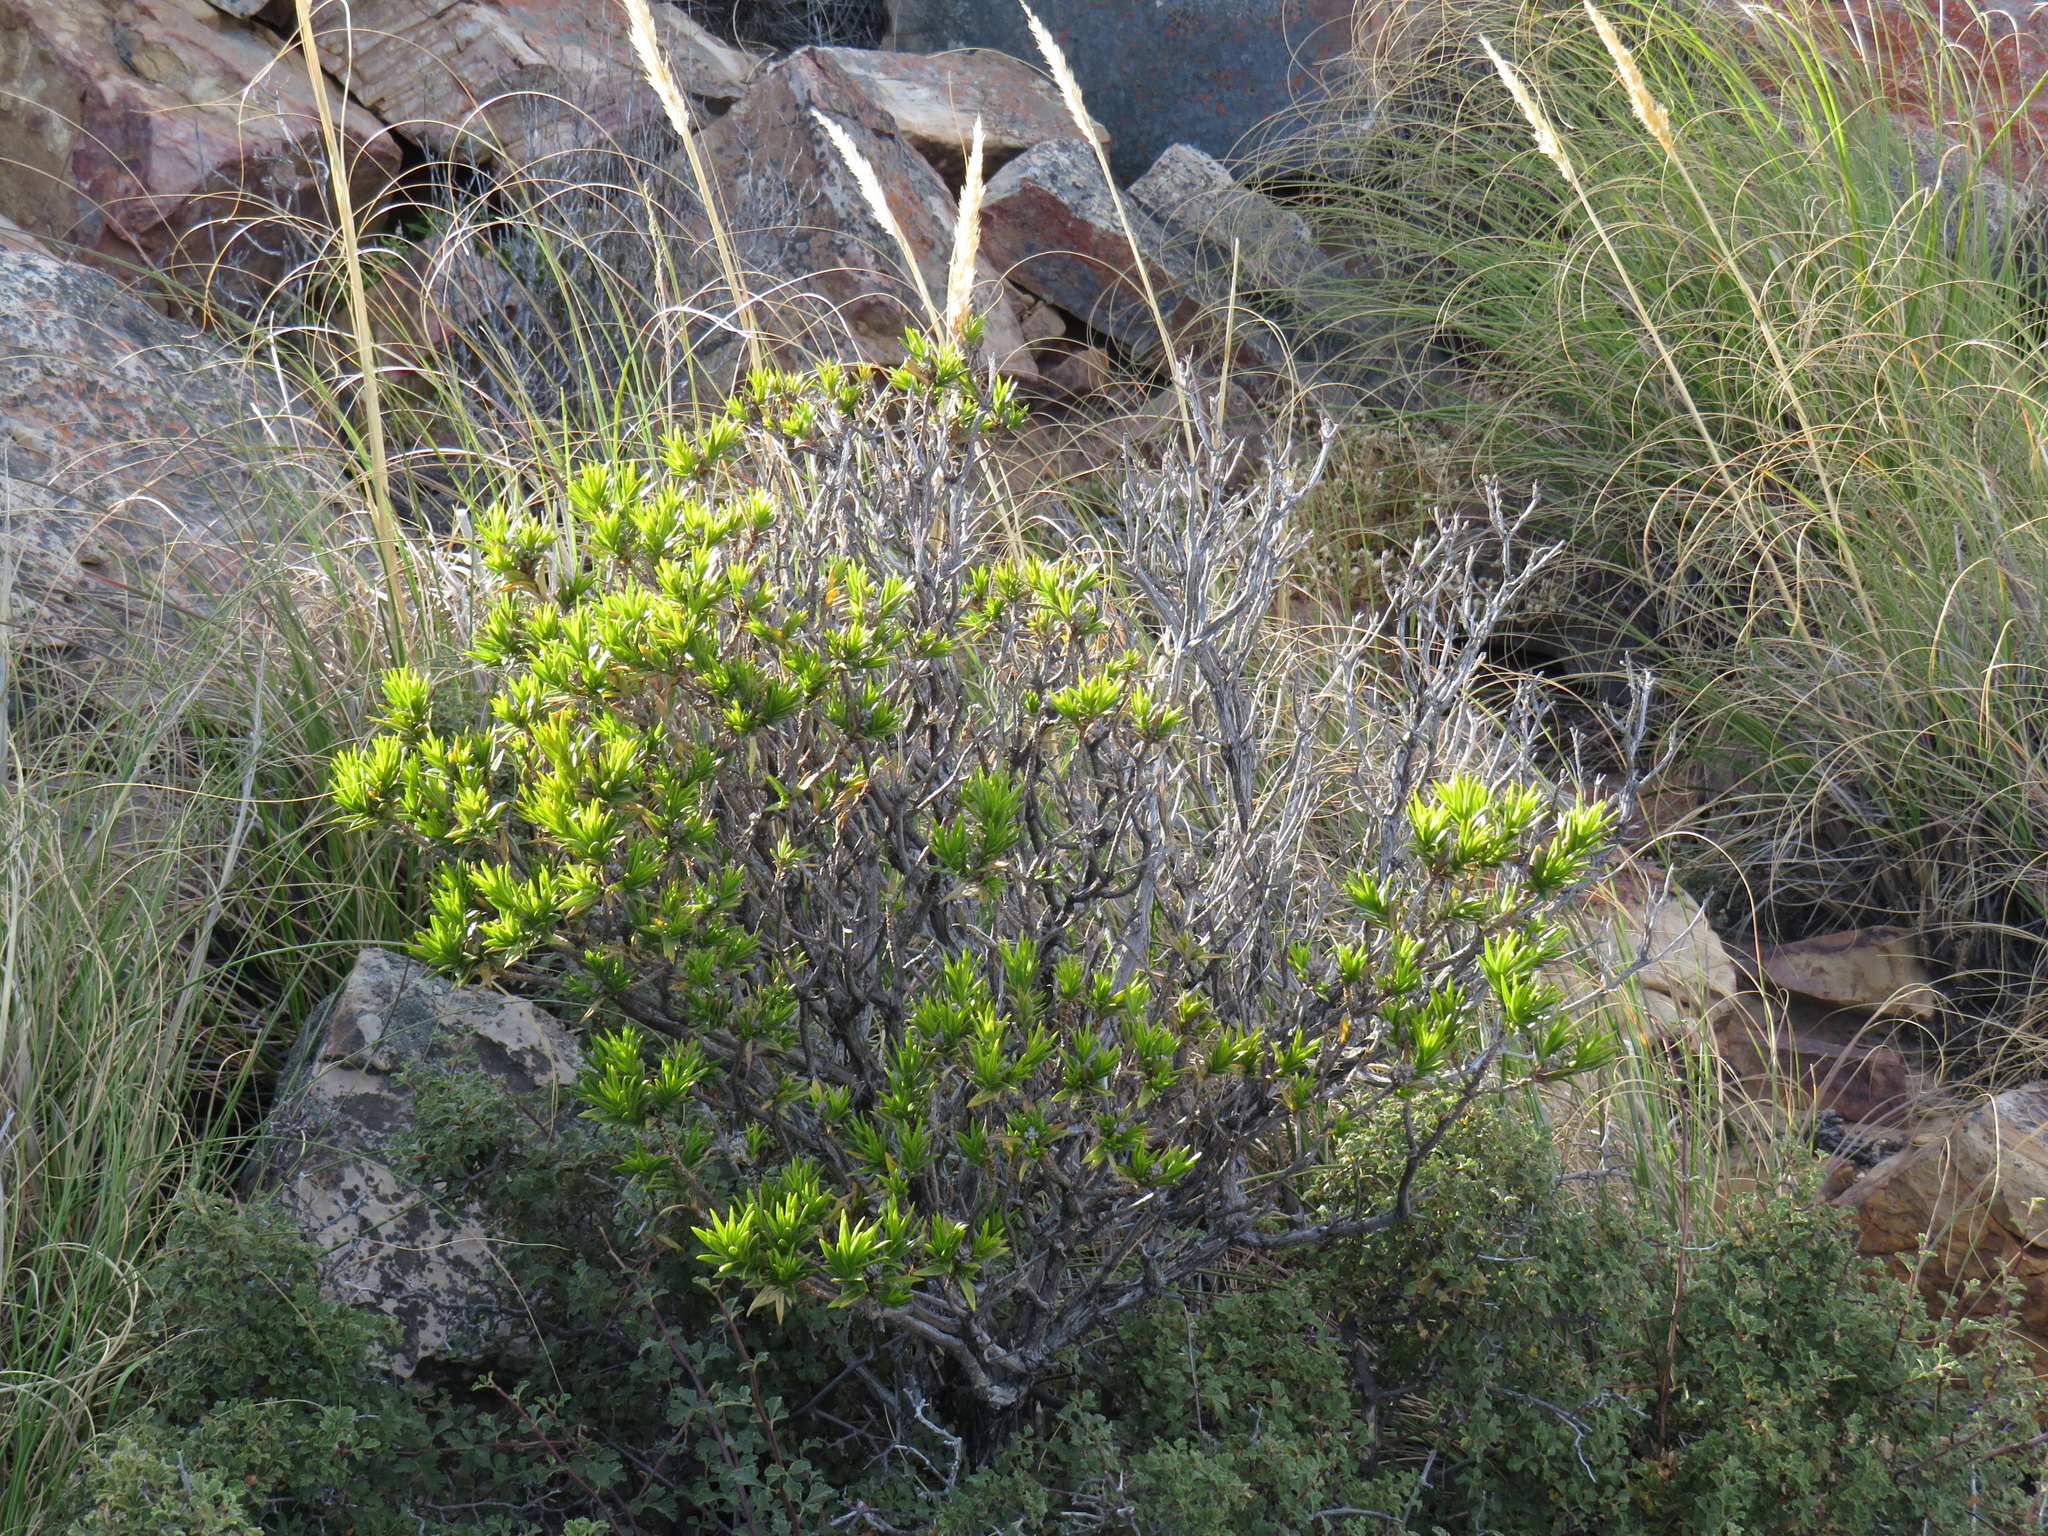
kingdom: Plantae
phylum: Tracheophyta
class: Magnoliopsida
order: Asterales
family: Asteraceae
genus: Pteronia
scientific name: Pteronia fasciculata
